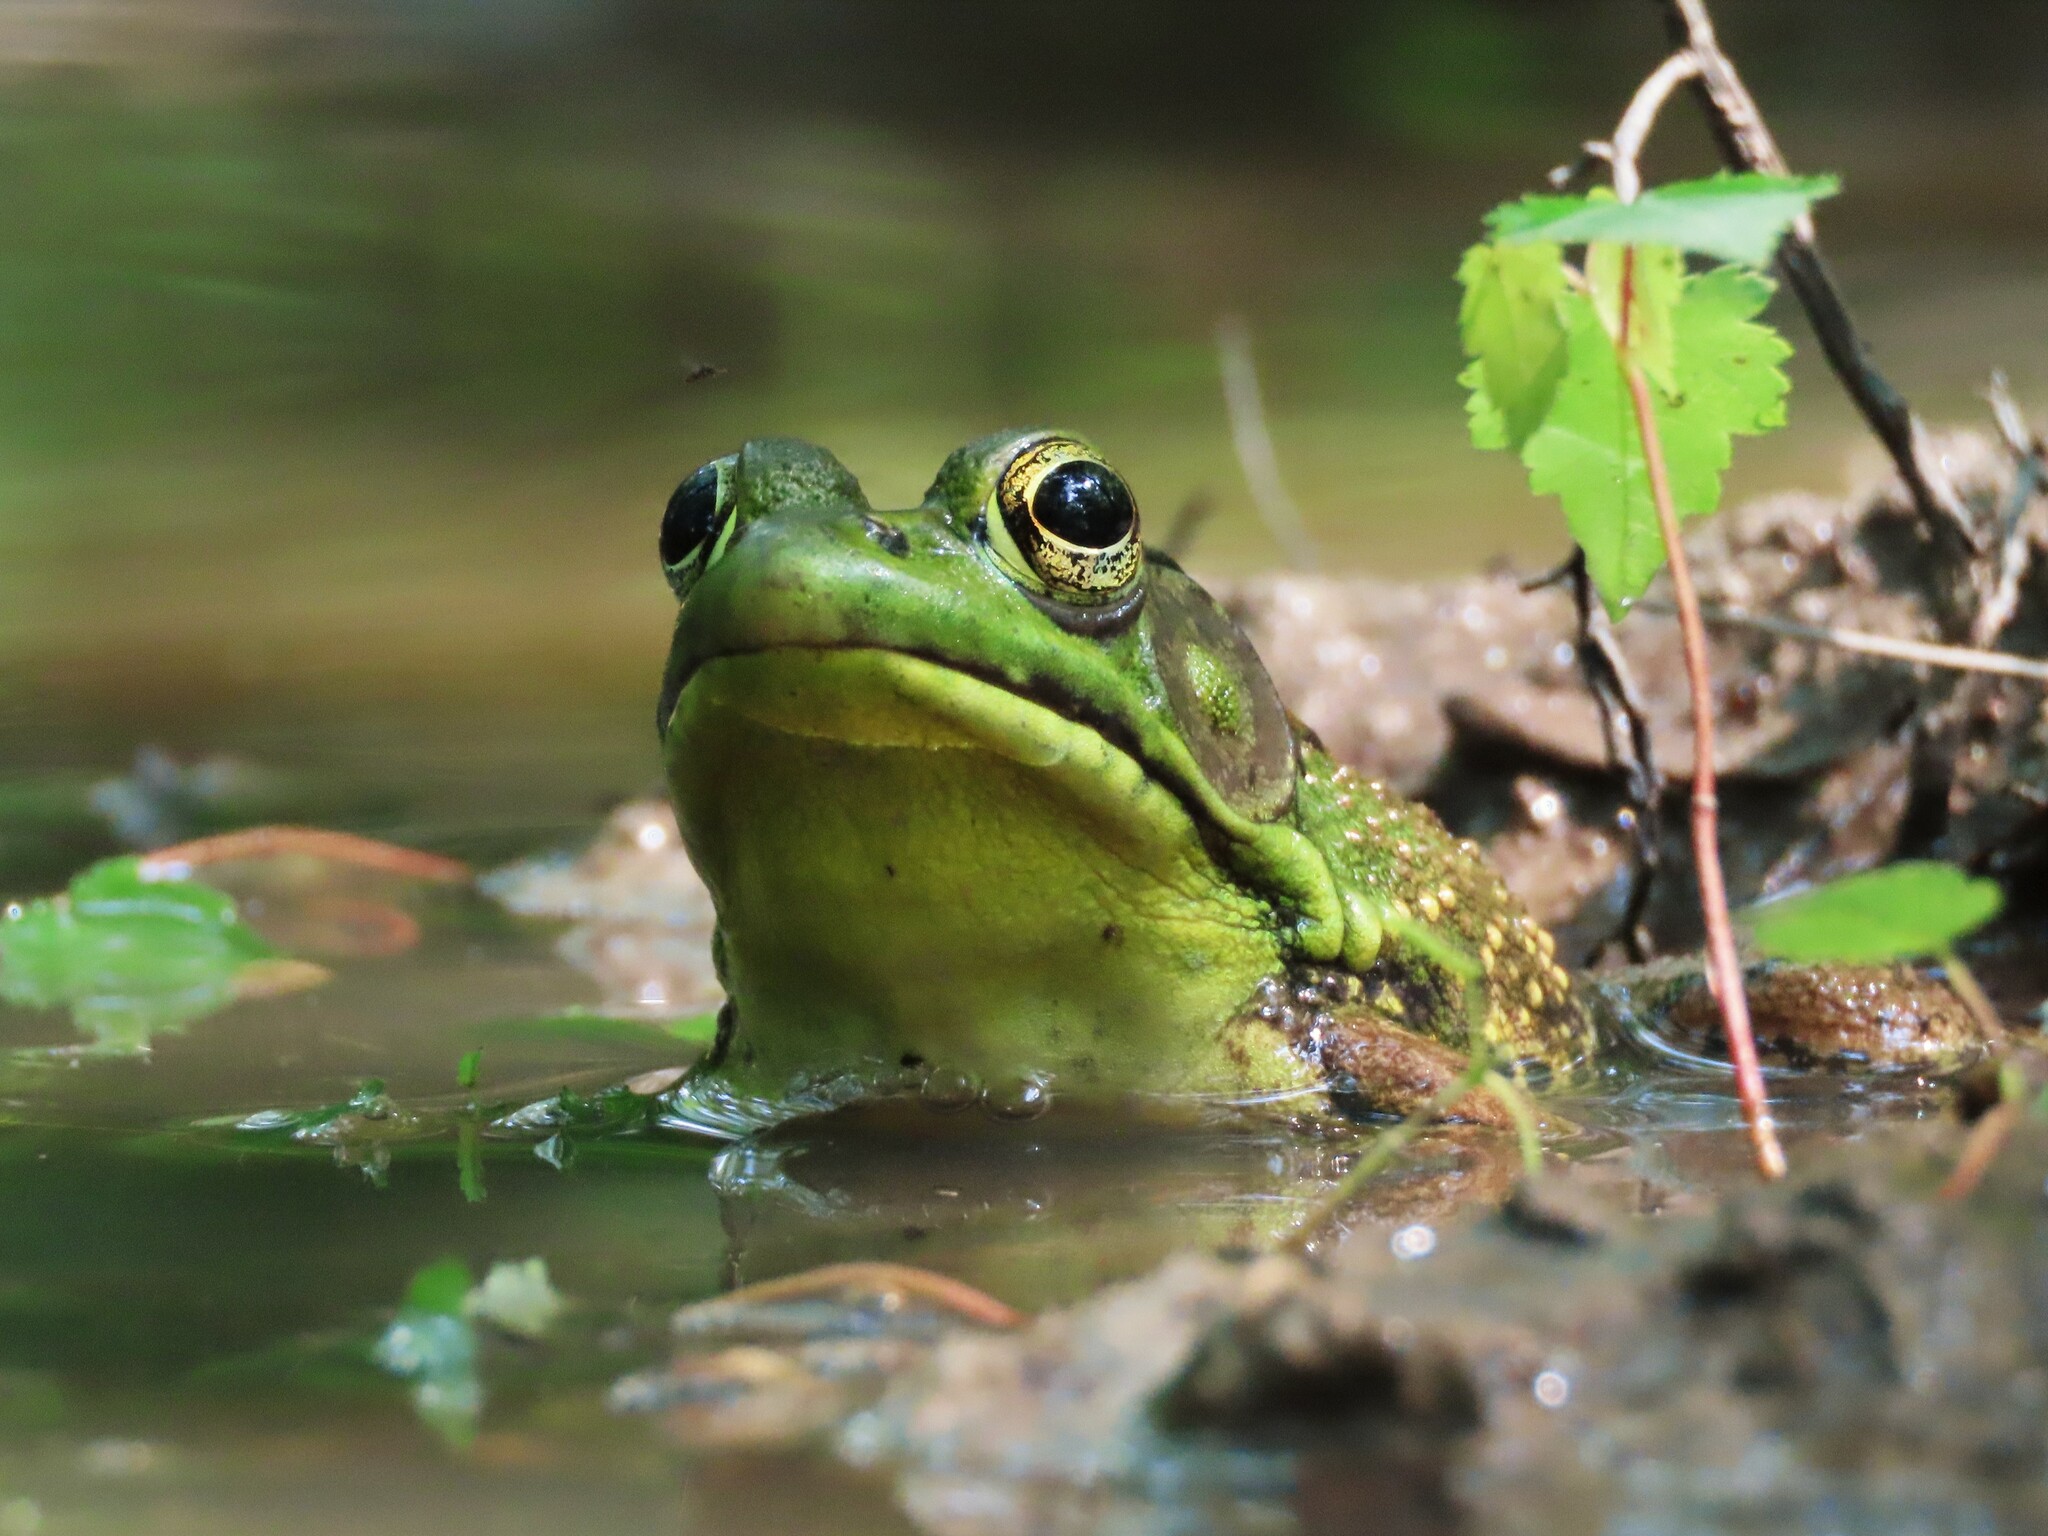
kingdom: Animalia
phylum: Chordata
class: Amphibia
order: Anura
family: Ranidae
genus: Lithobates
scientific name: Lithobates clamitans
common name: Green frog
